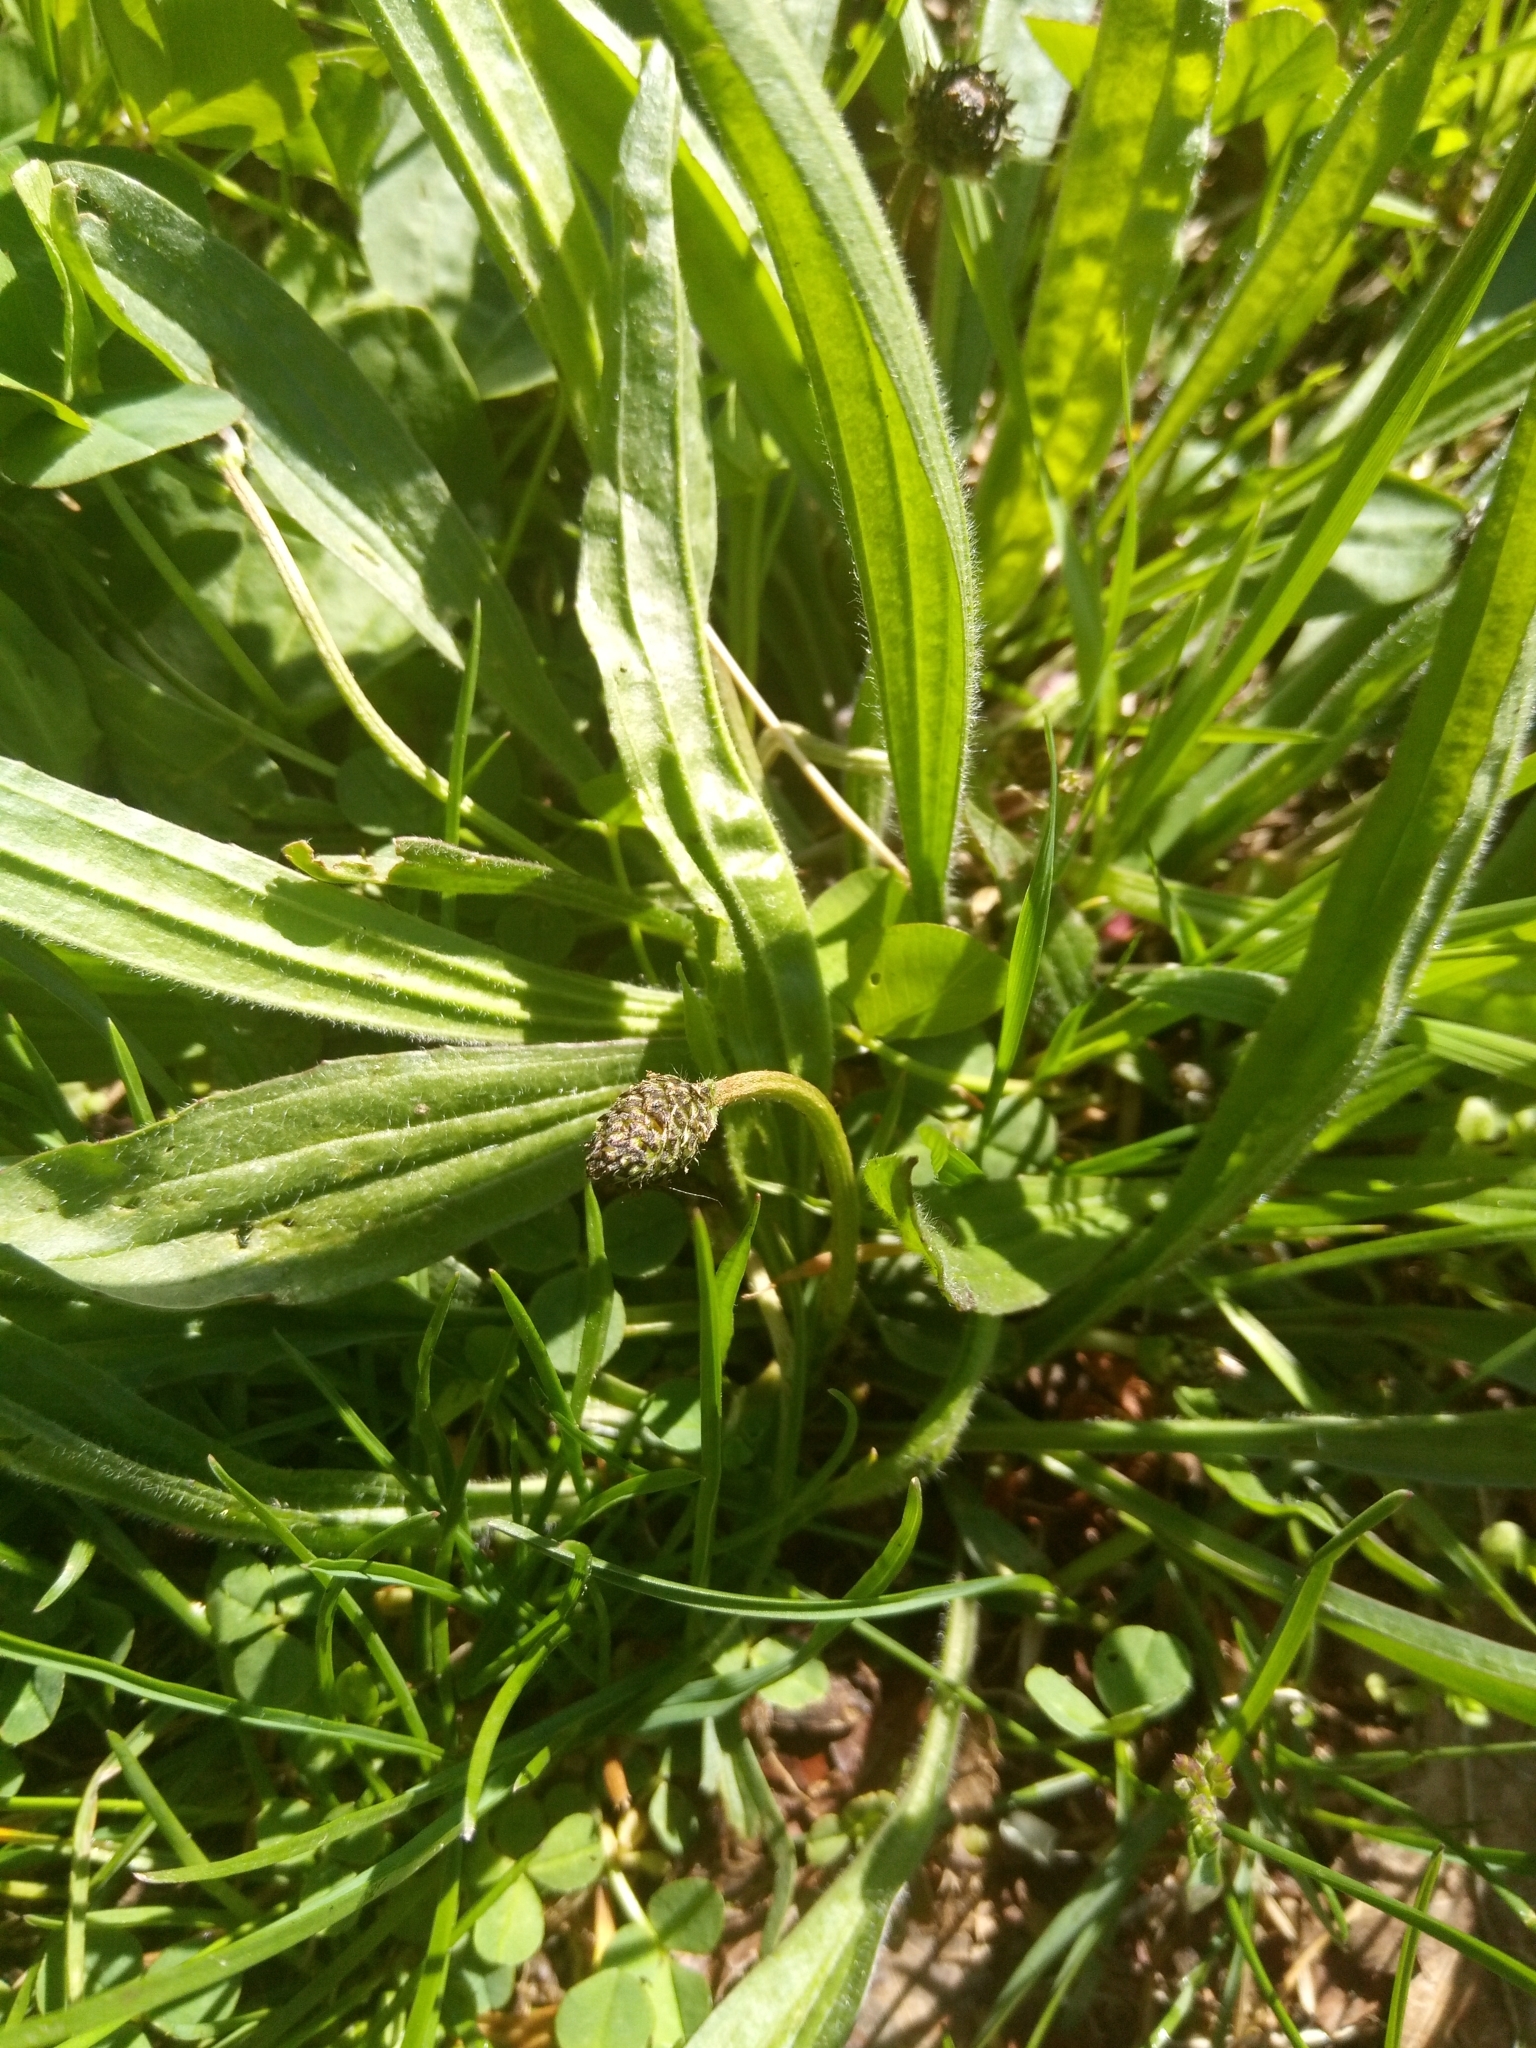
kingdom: Plantae
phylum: Tracheophyta
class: Magnoliopsida
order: Lamiales
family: Plantaginaceae
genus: Plantago
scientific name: Plantago lanceolata
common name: Ribwort plantain
